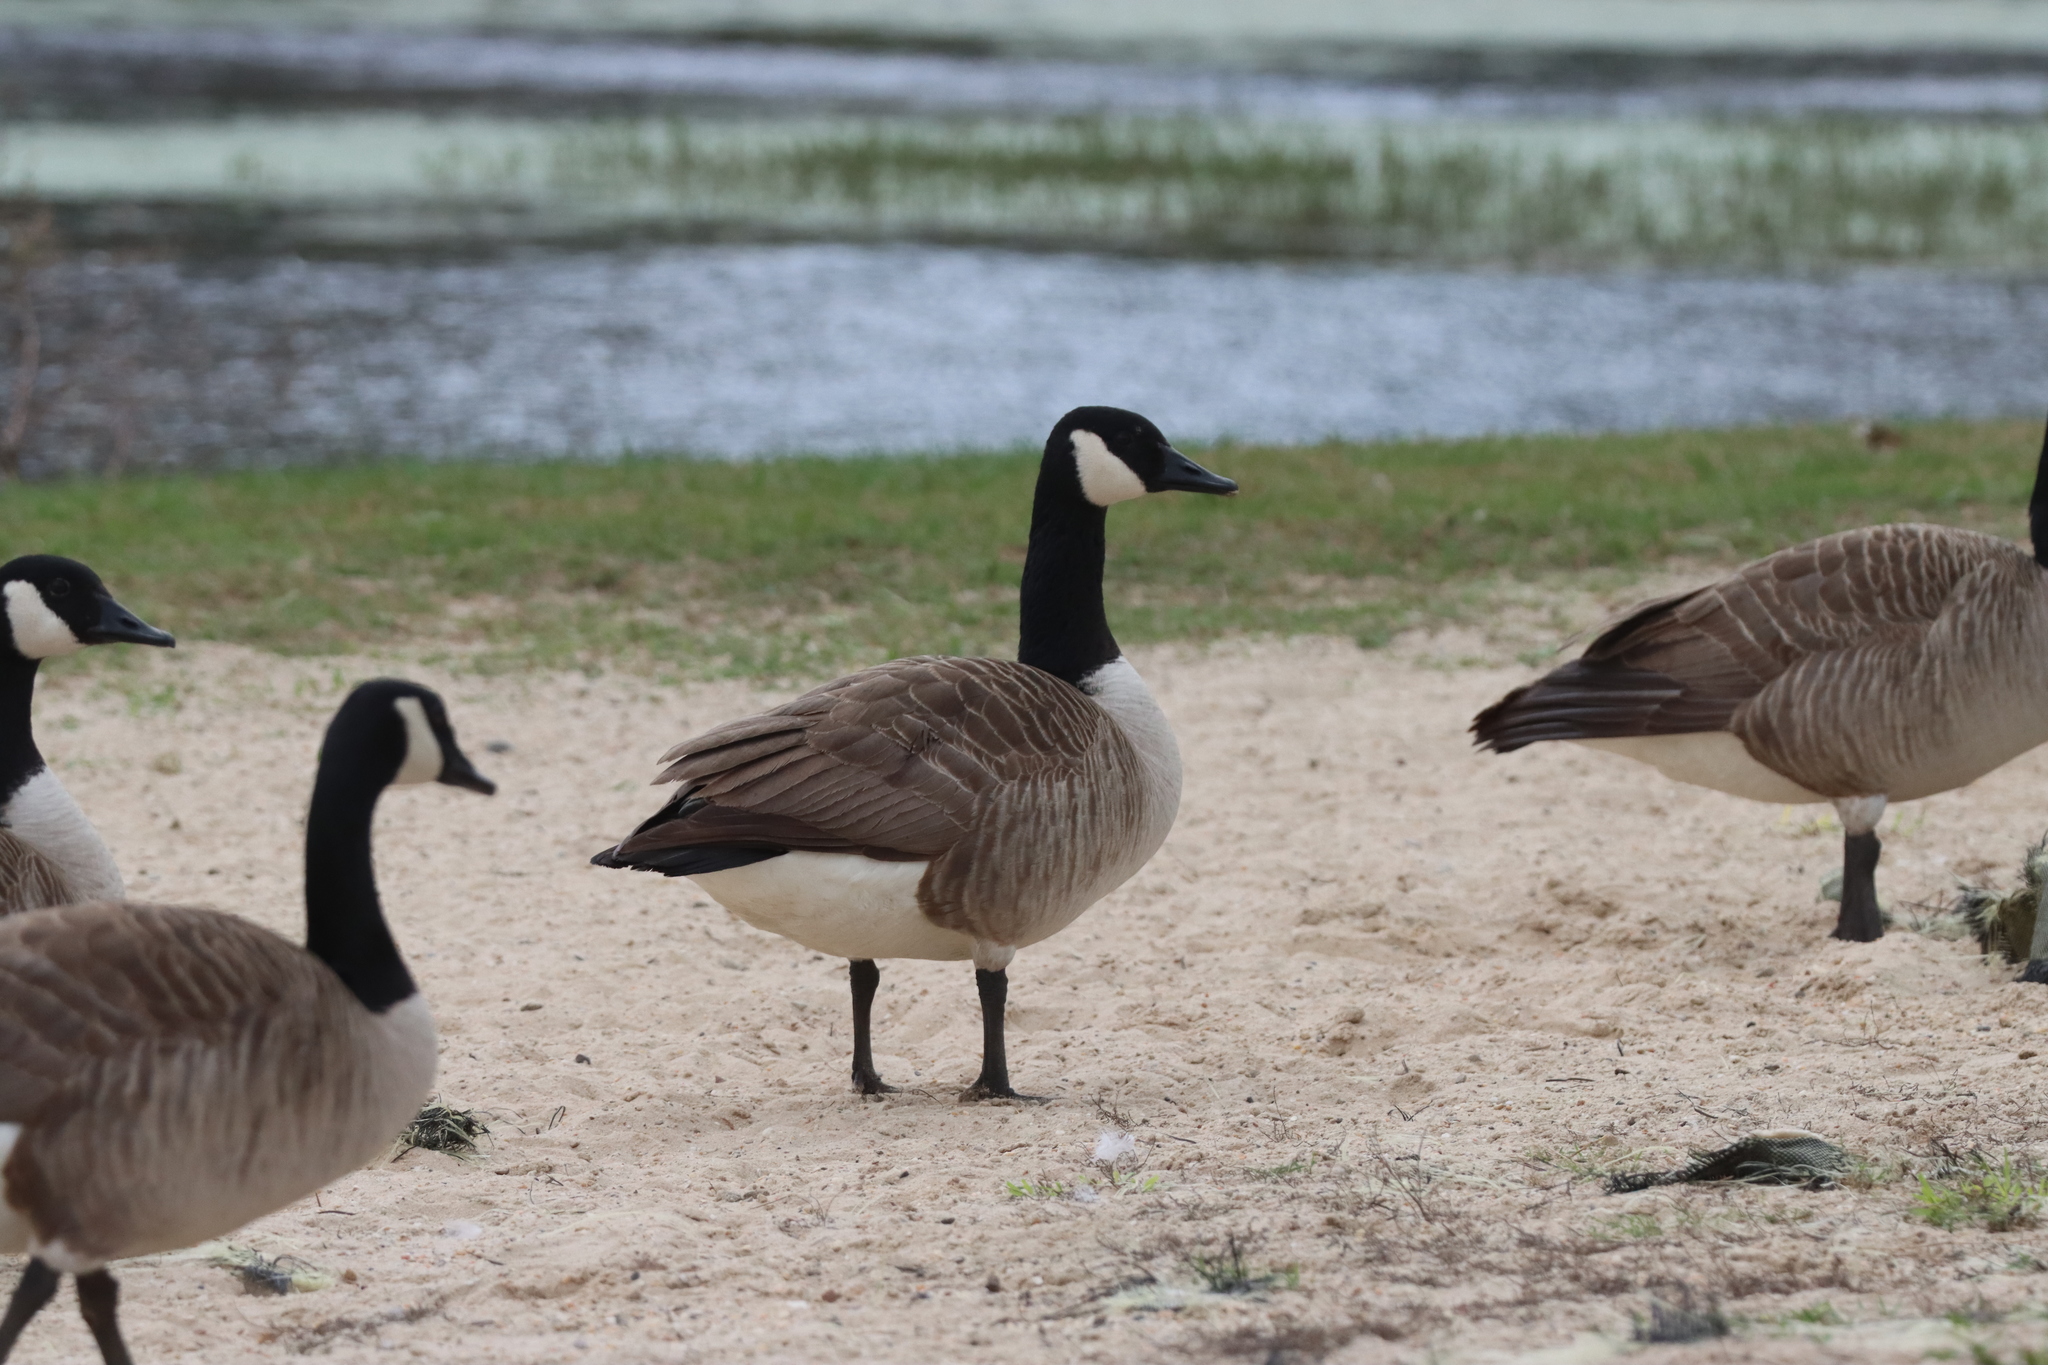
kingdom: Animalia
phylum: Chordata
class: Aves
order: Anseriformes
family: Anatidae
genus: Branta
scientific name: Branta canadensis
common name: Canada goose
